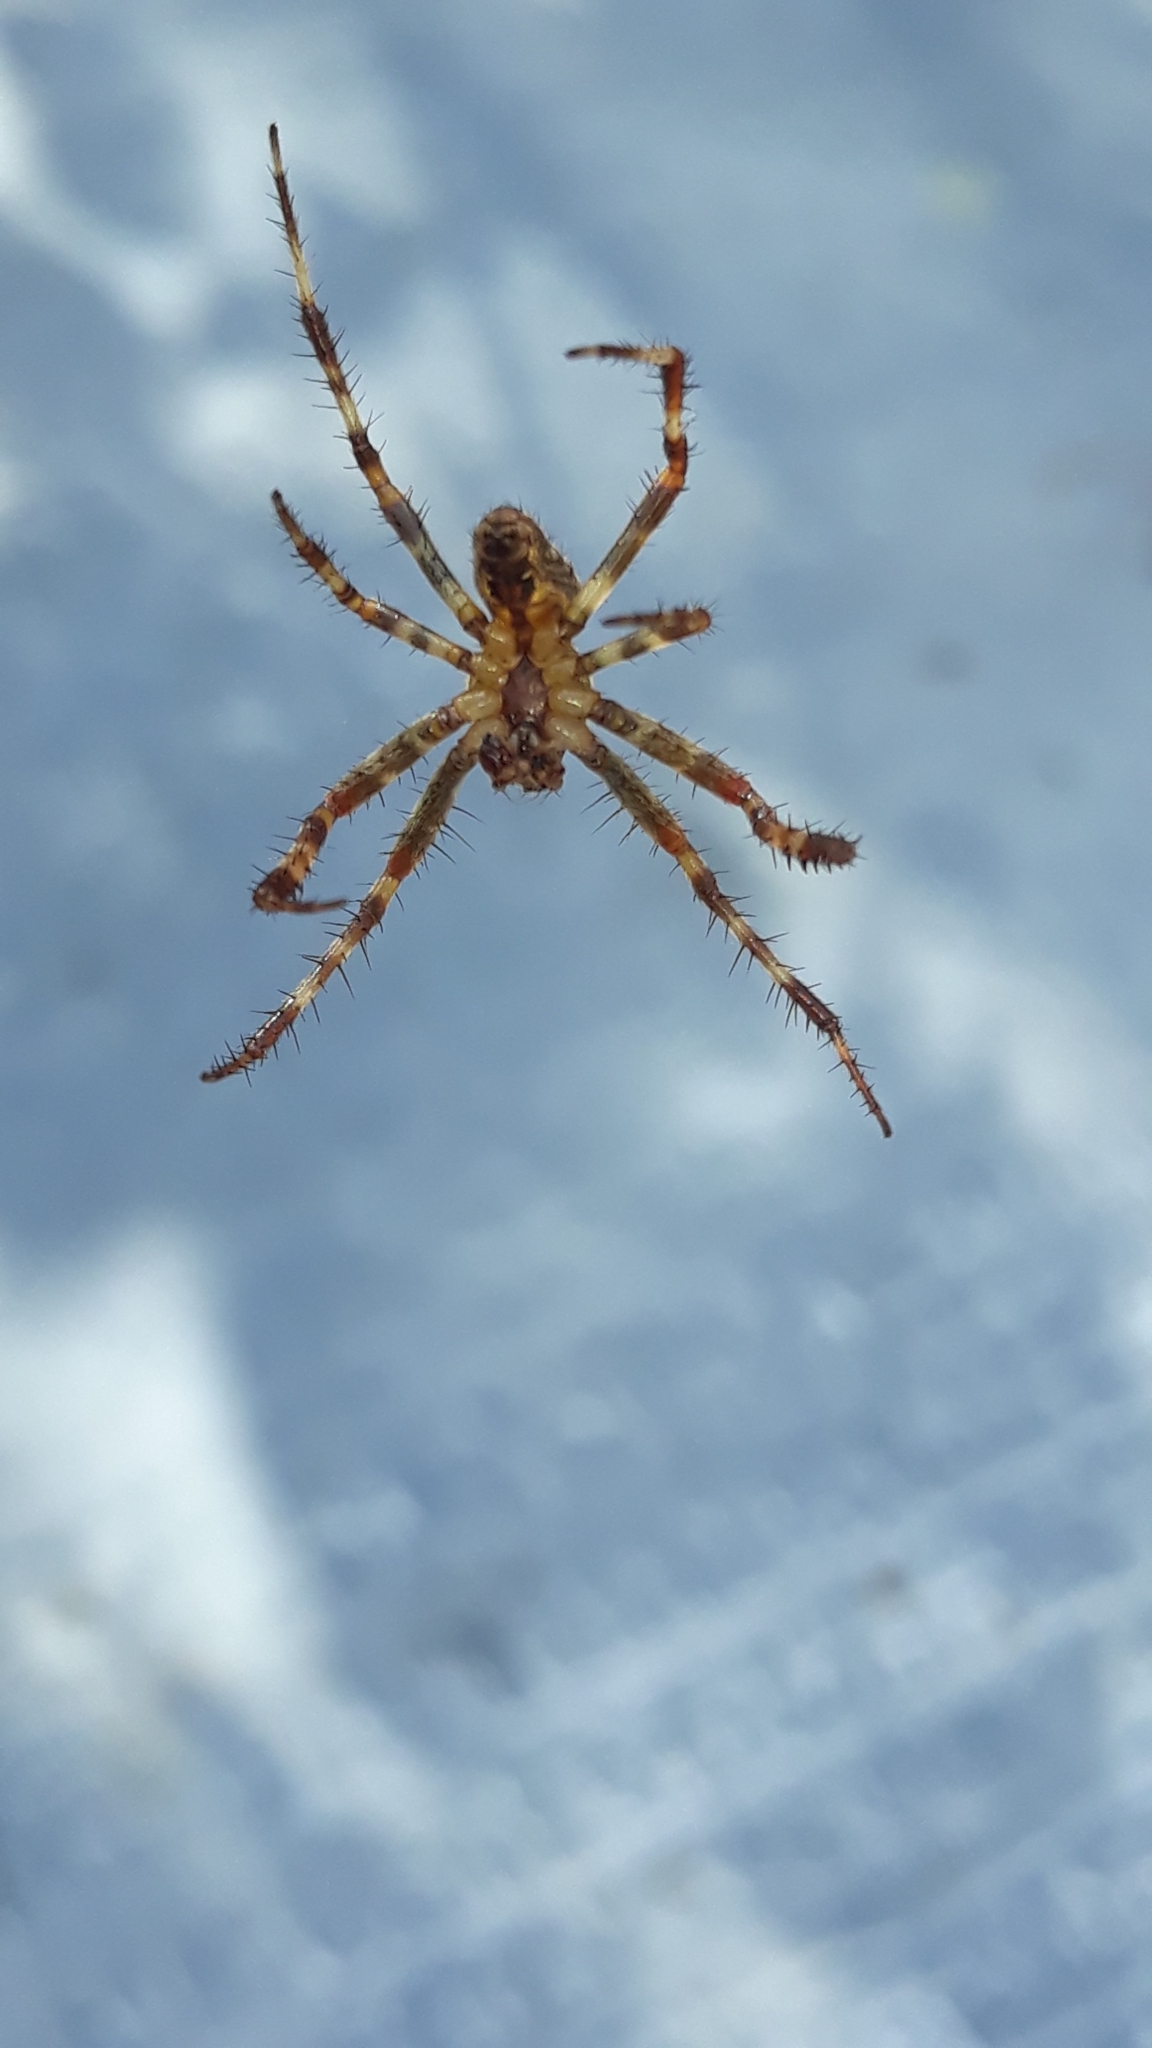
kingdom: Animalia
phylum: Arthropoda
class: Arachnida
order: Araneae
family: Araneidae
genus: Araneus
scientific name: Araneus diadematus
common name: Cross orbweaver
